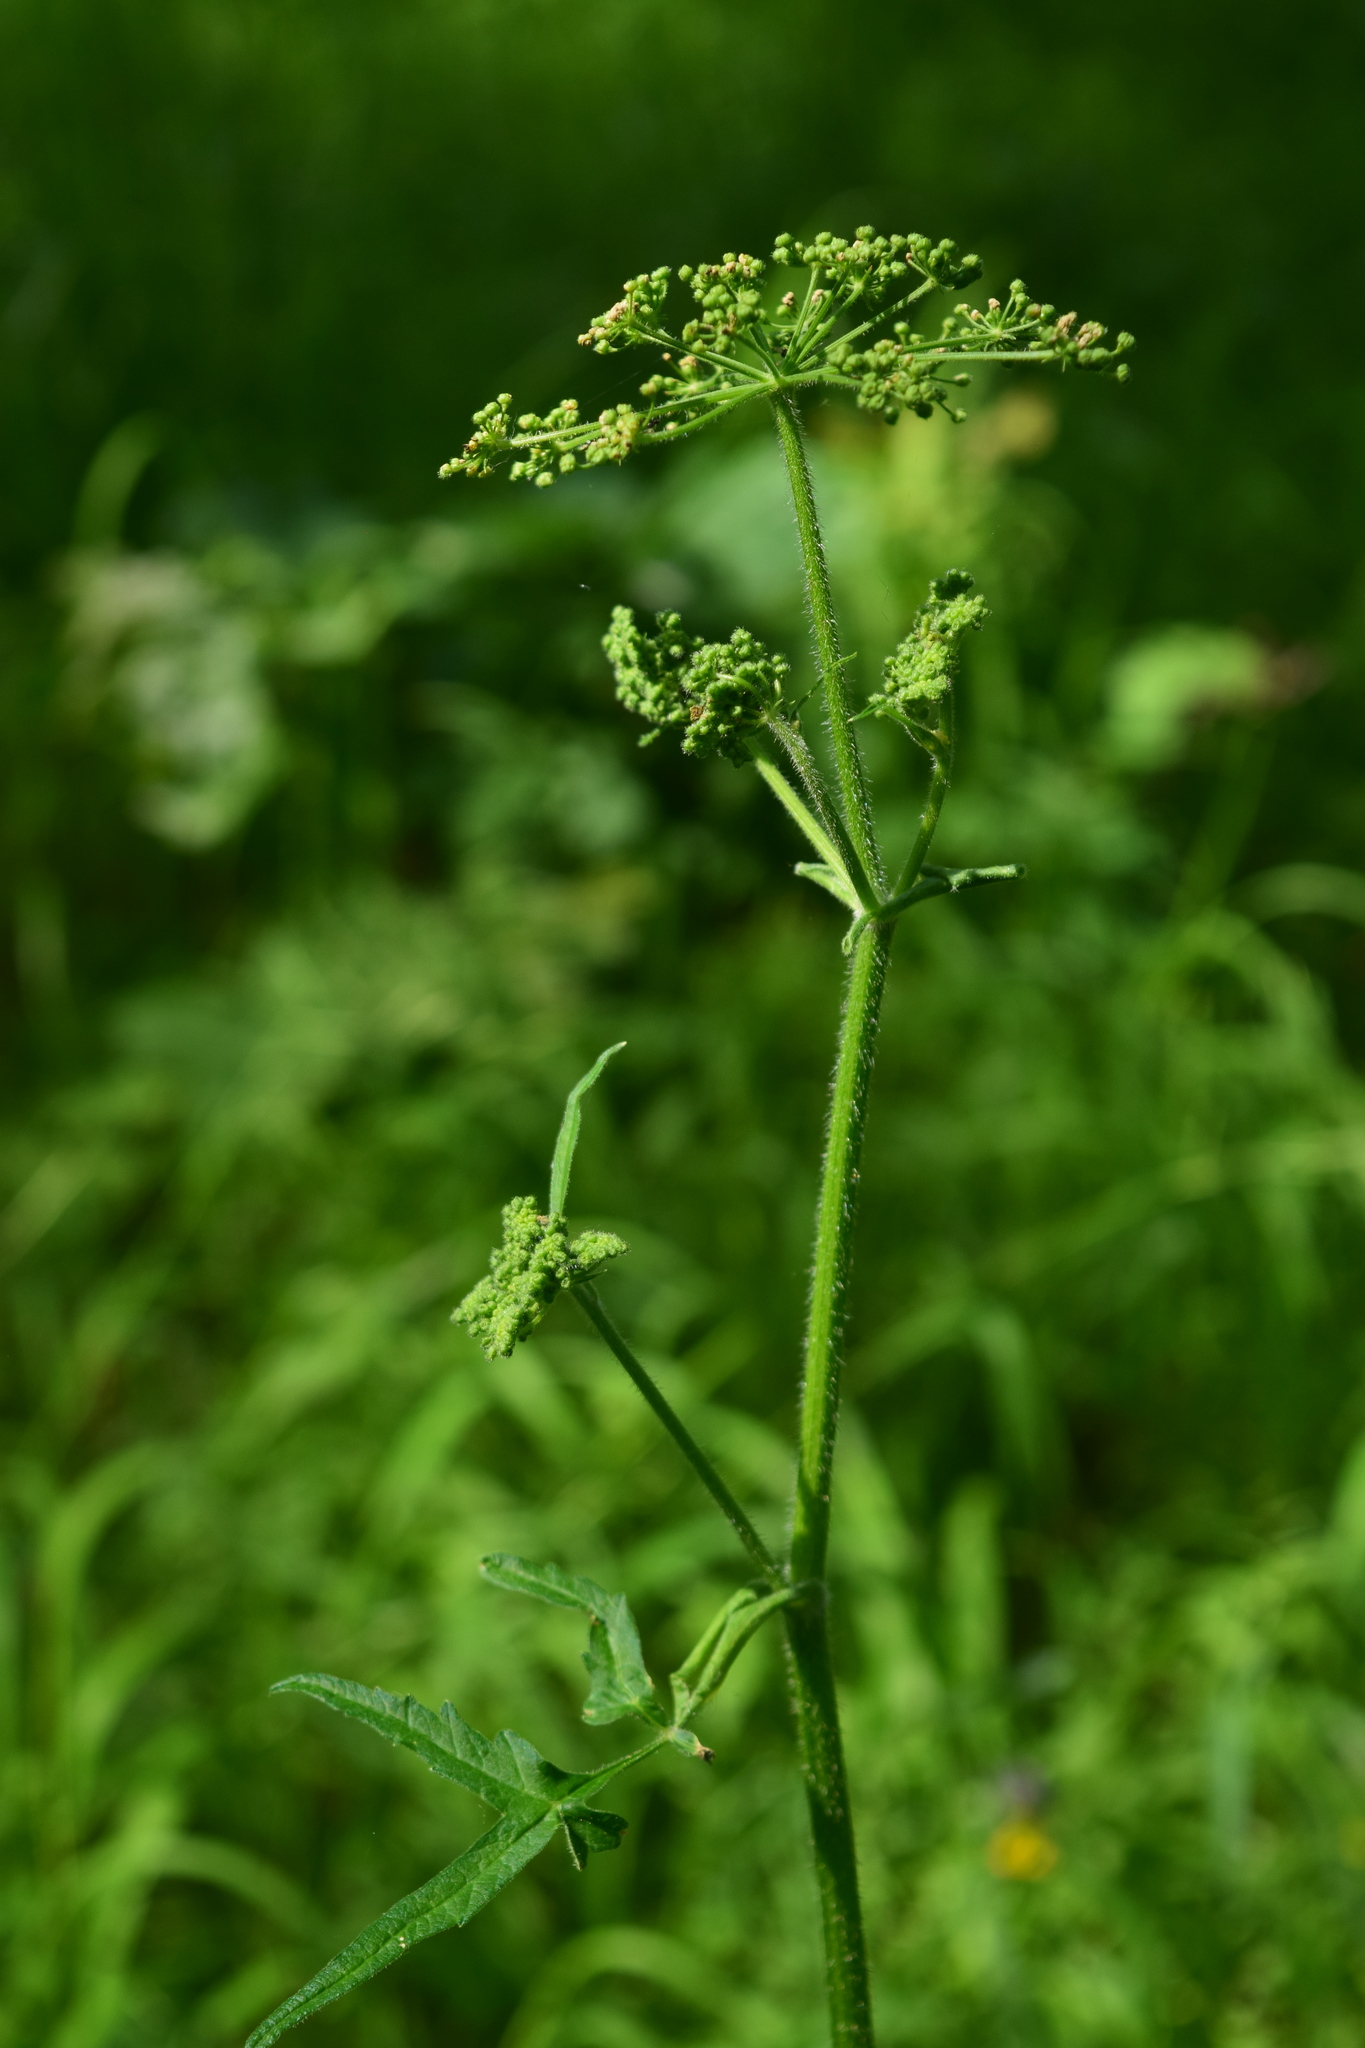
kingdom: Plantae
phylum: Tracheophyta
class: Magnoliopsida
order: Apiales
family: Apiaceae
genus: Heracleum
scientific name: Heracleum sphondylium
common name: Hogweed
